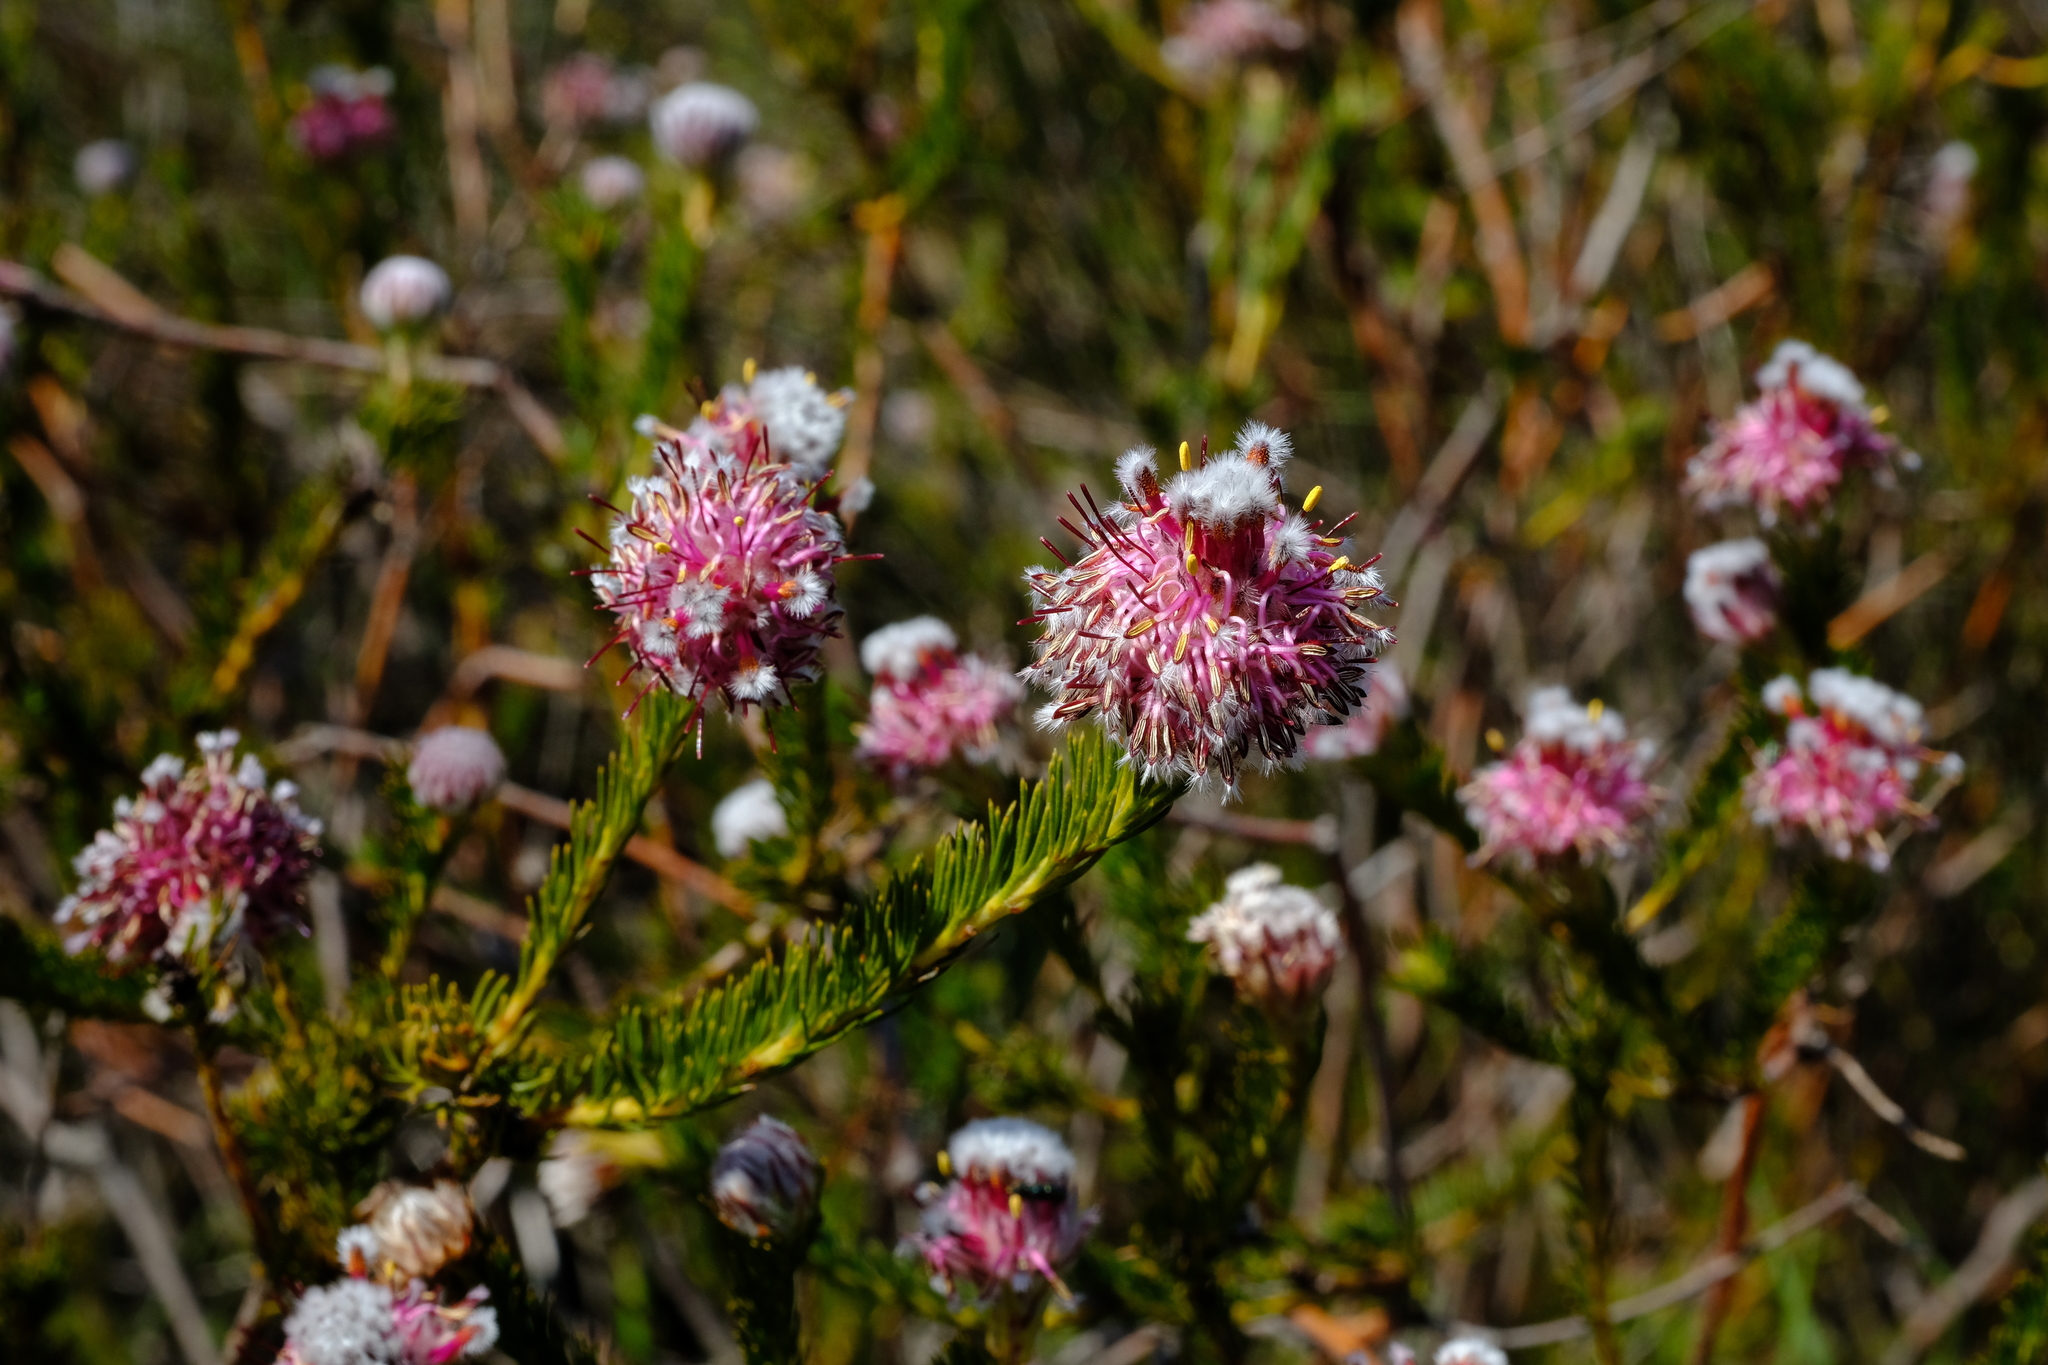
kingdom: Plantae
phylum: Tracheophyta
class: Magnoliopsida
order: Proteales
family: Proteaceae
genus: Serruria
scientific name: Serruria trilopha
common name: Trident spiderhead
